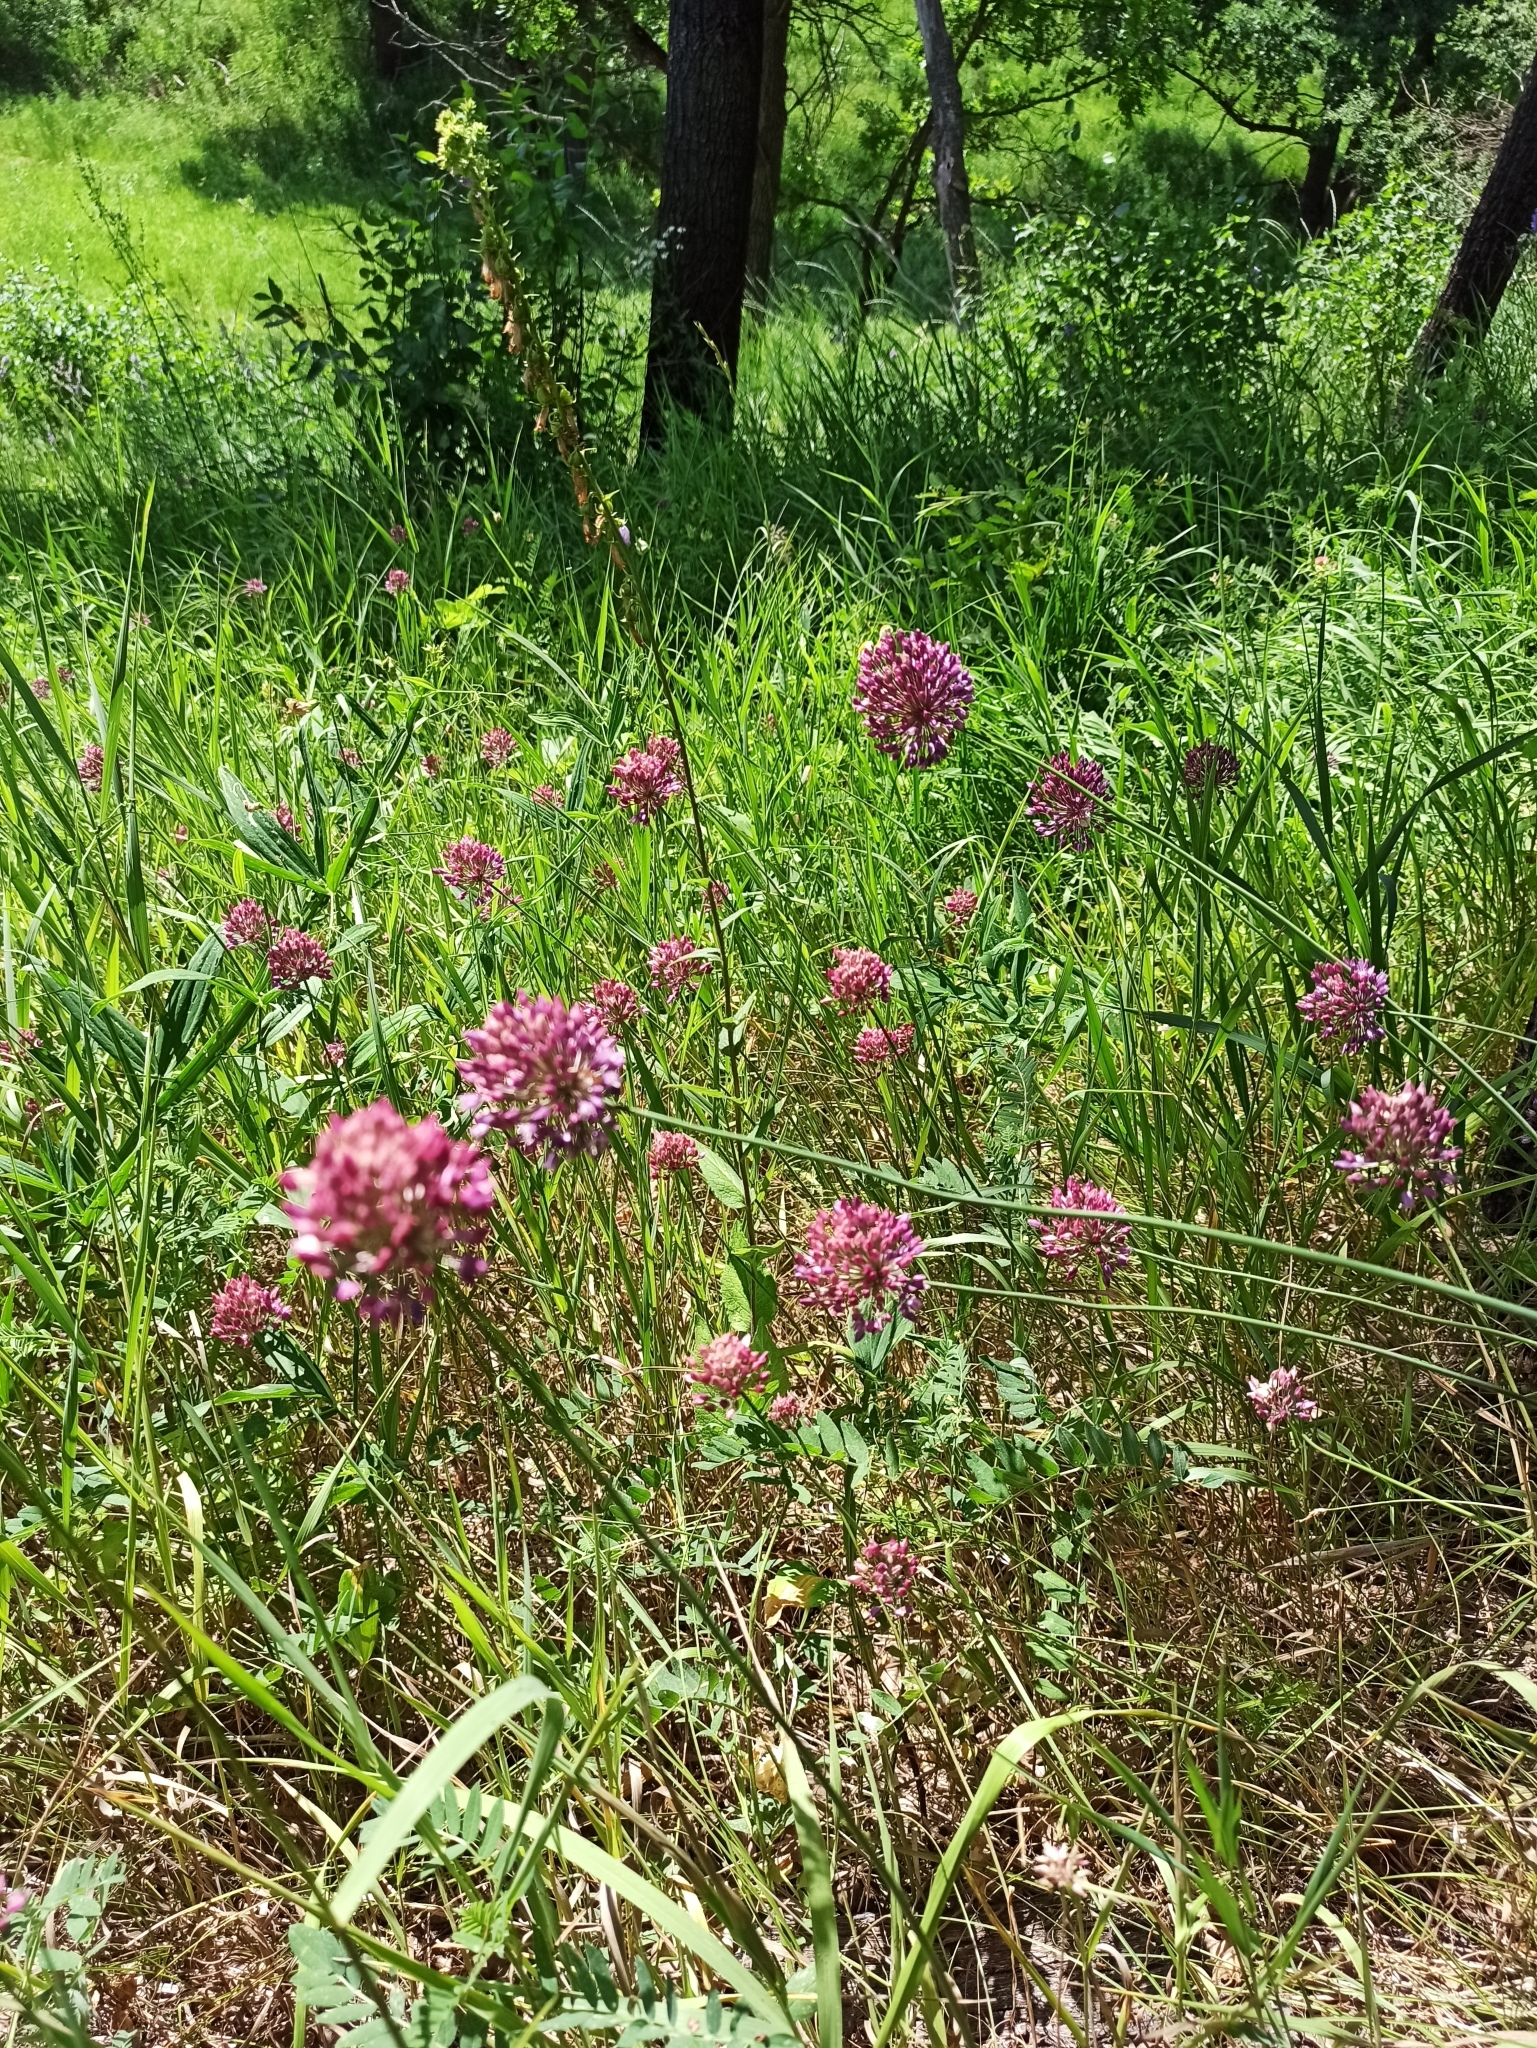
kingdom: Plantae
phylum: Tracheophyta
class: Liliopsida
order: Asparagales
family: Amaryllidaceae
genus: Allium
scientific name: Allium rotundum
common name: Sand leek
